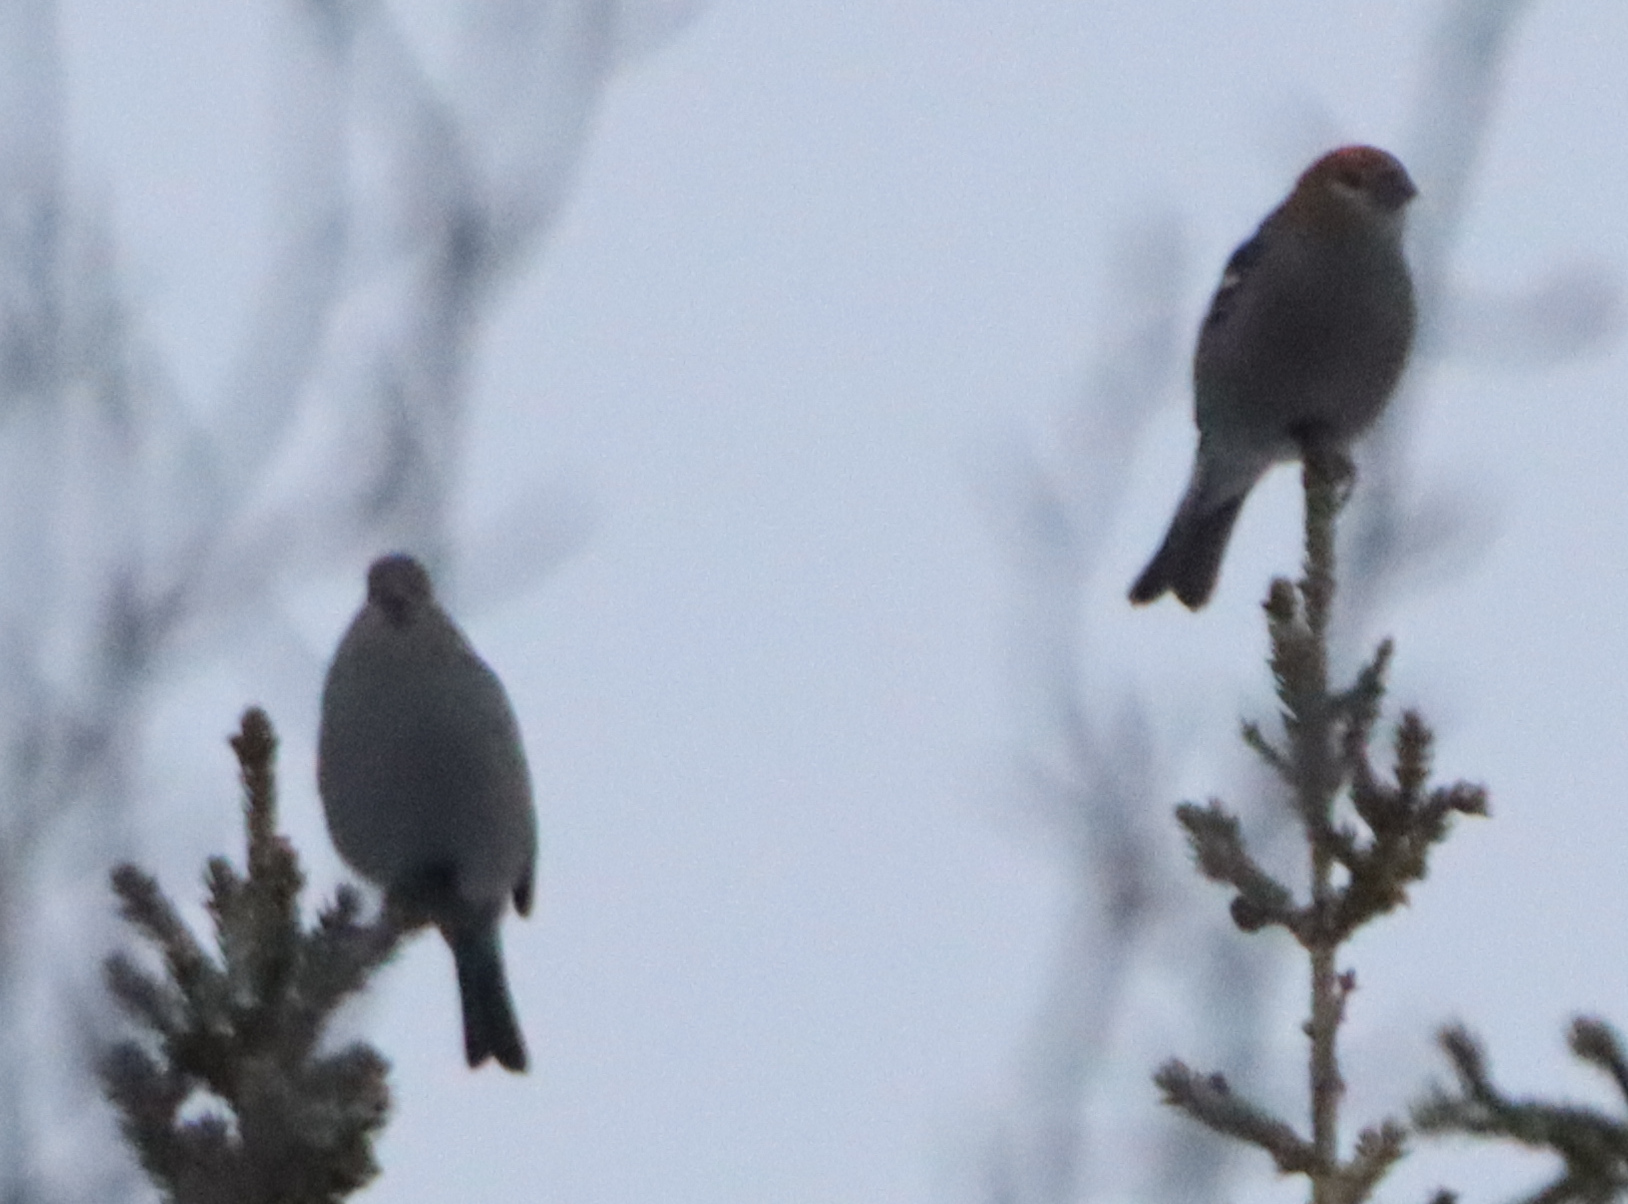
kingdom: Animalia
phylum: Chordata
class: Aves
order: Passeriformes
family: Fringillidae
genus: Pinicola
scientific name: Pinicola enucleator
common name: Pine grosbeak
